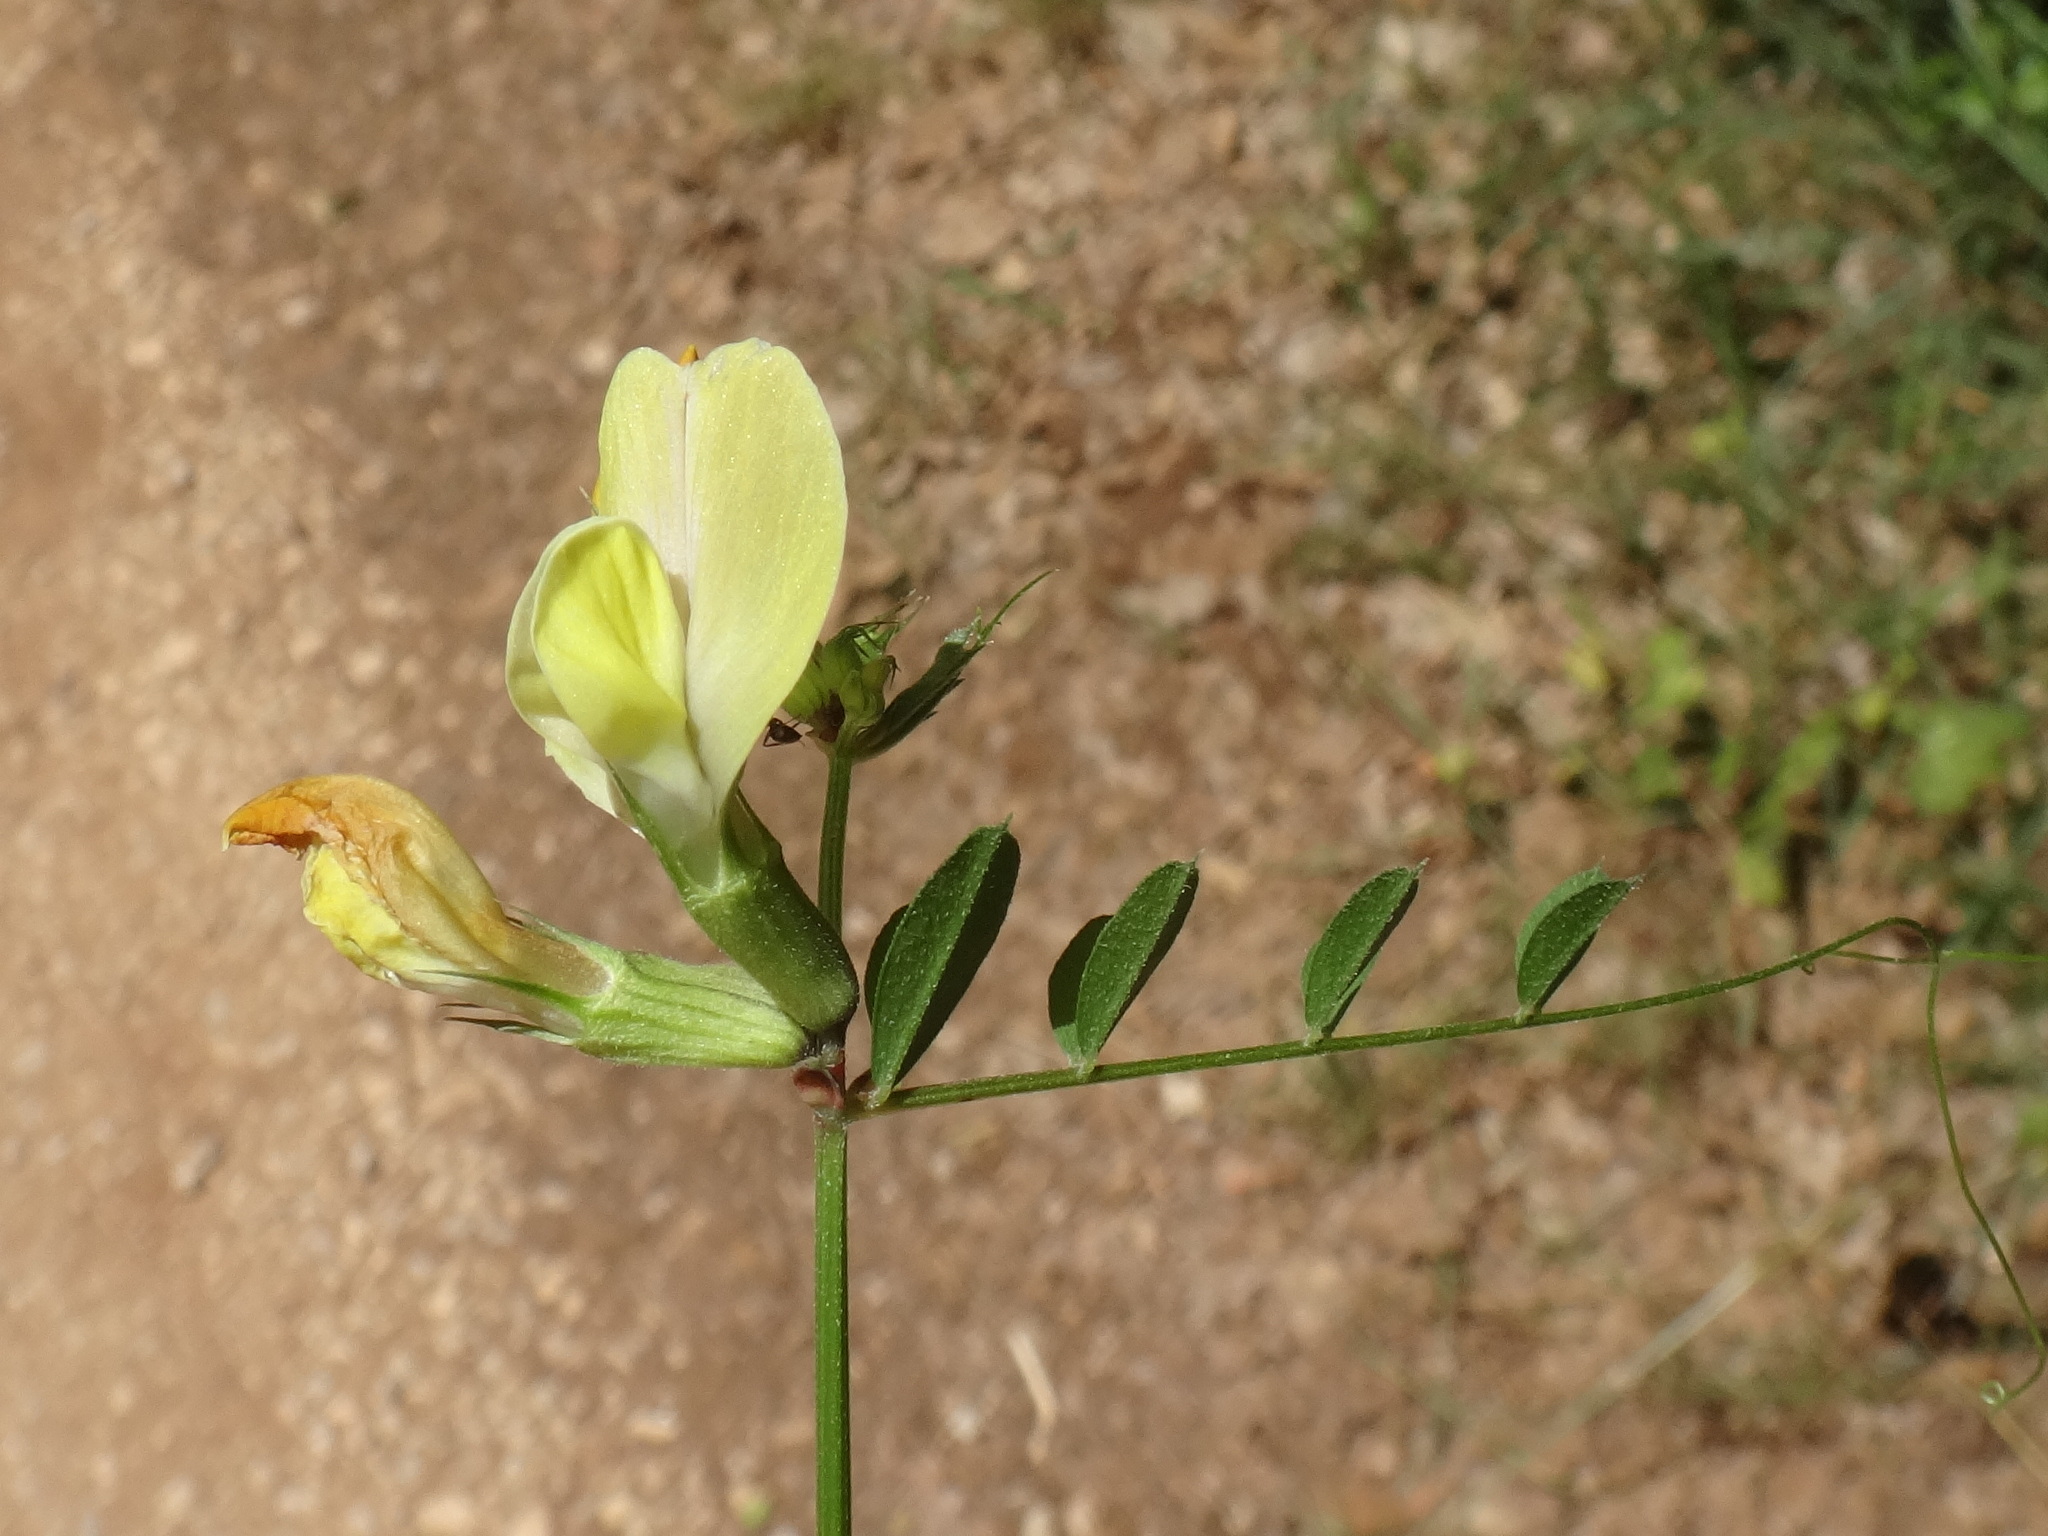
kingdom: Plantae
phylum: Tracheophyta
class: Magnoliopsida
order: Fabales
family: Fabaceae
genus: Vicia
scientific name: Vicia grandiflora
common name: Large yellow vetch
